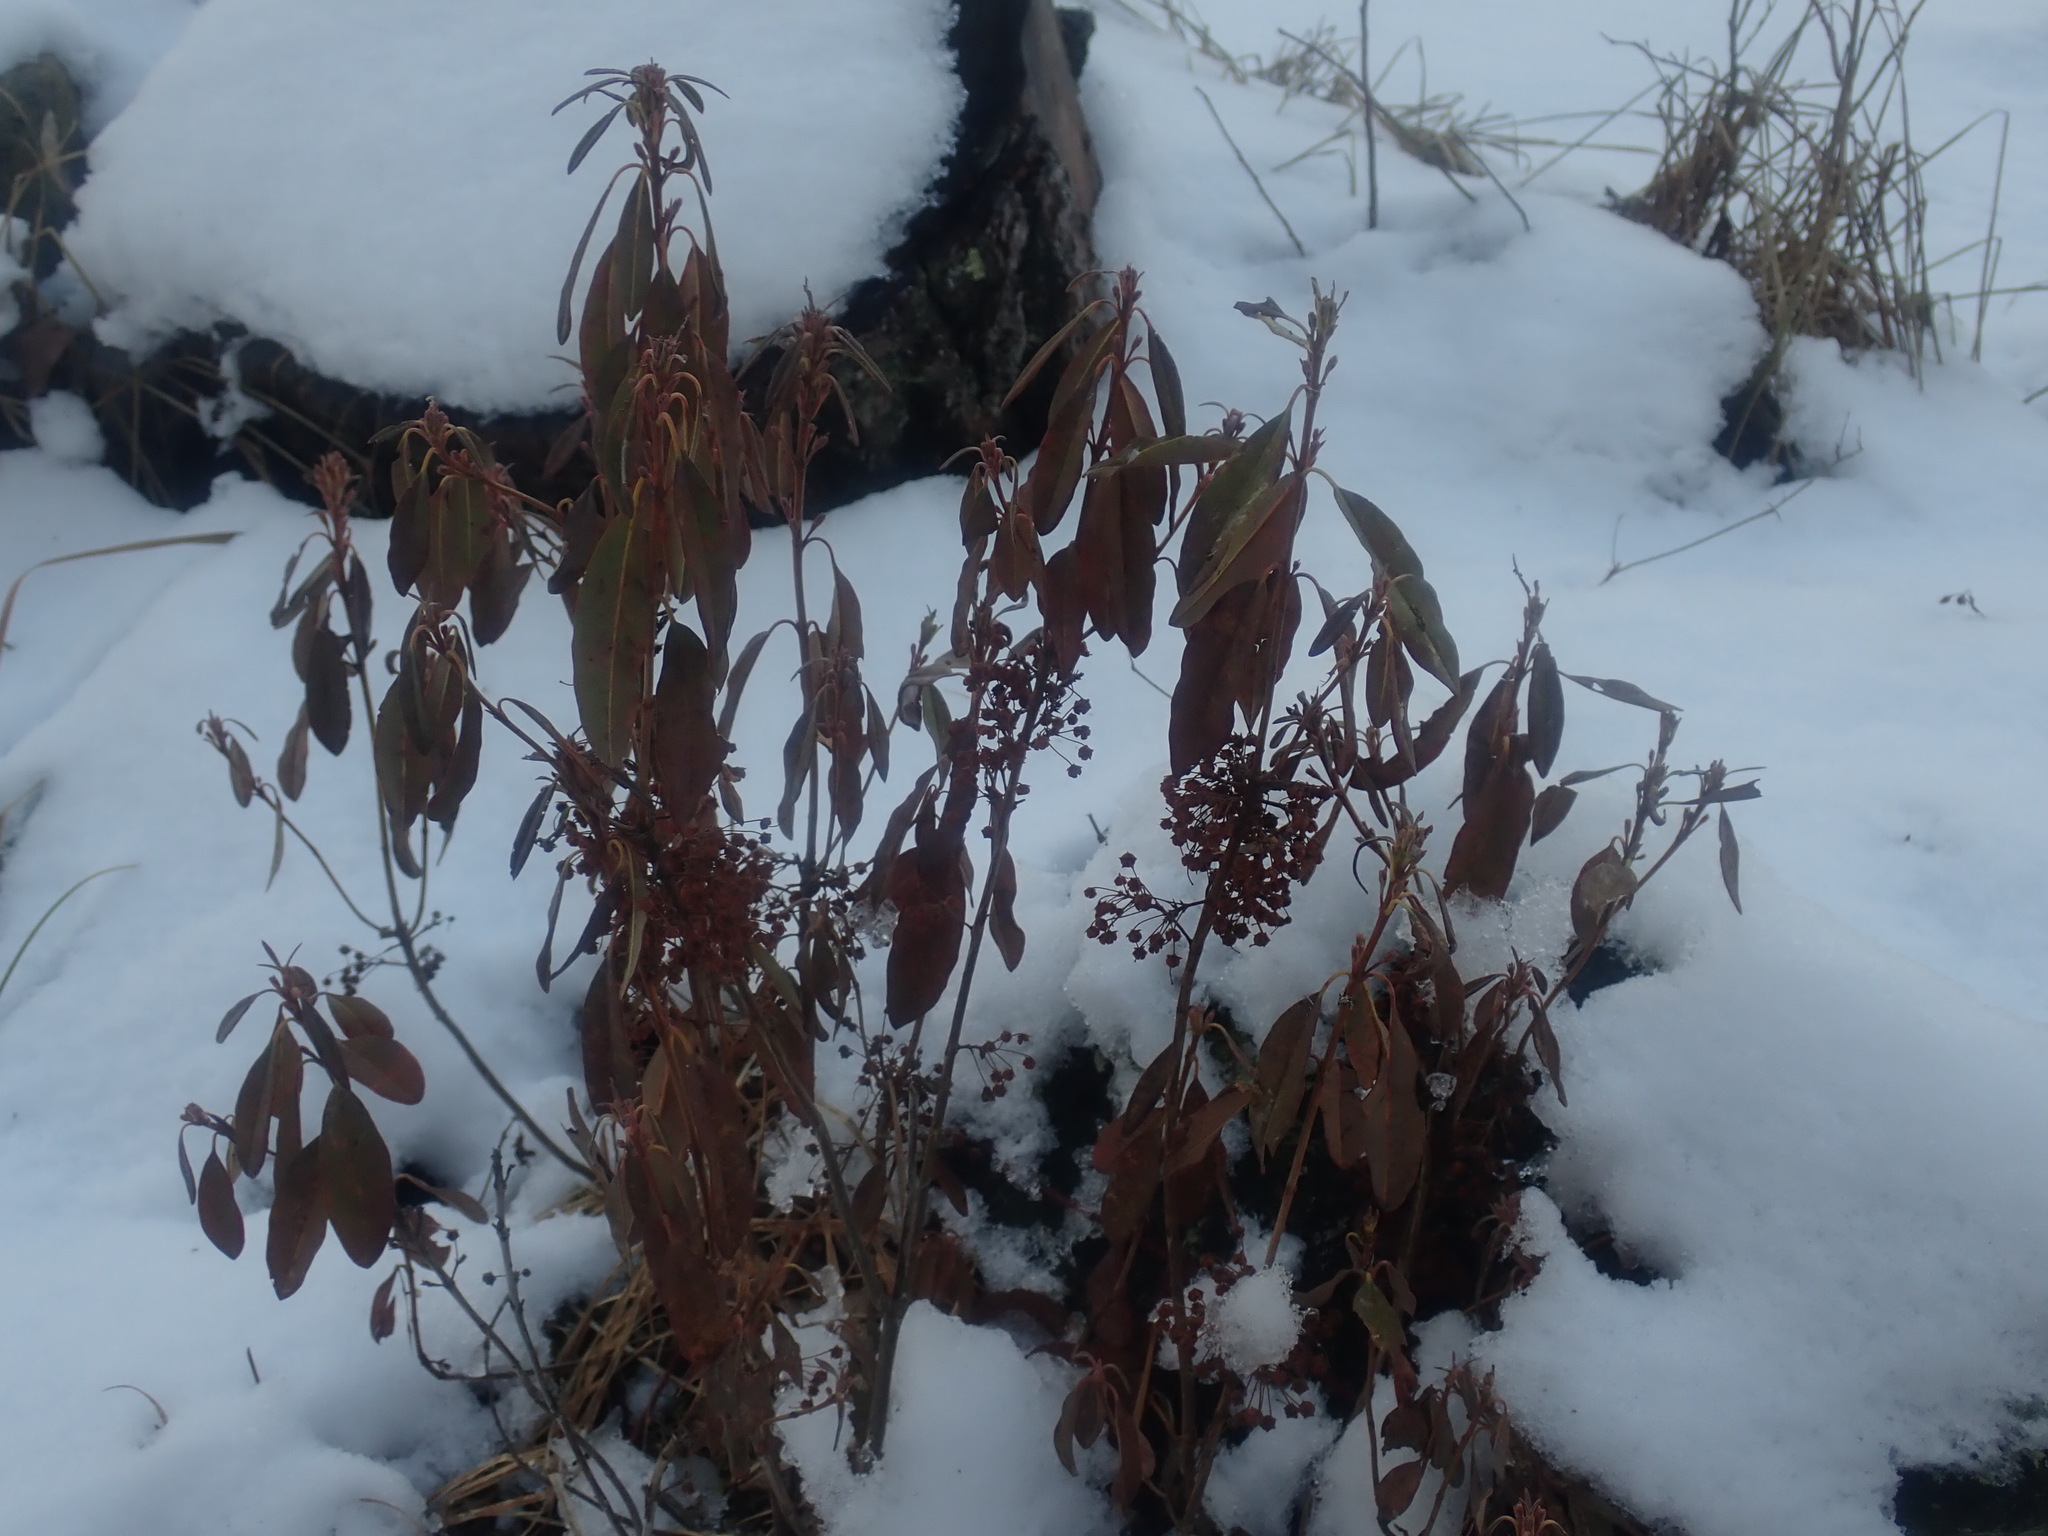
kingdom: Plantae
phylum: Tracheophyta
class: Magnoliopsida
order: Ericales
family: Ericaceae
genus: Kalmia
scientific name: Kalmia angustifolia
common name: Sheep-laurel
